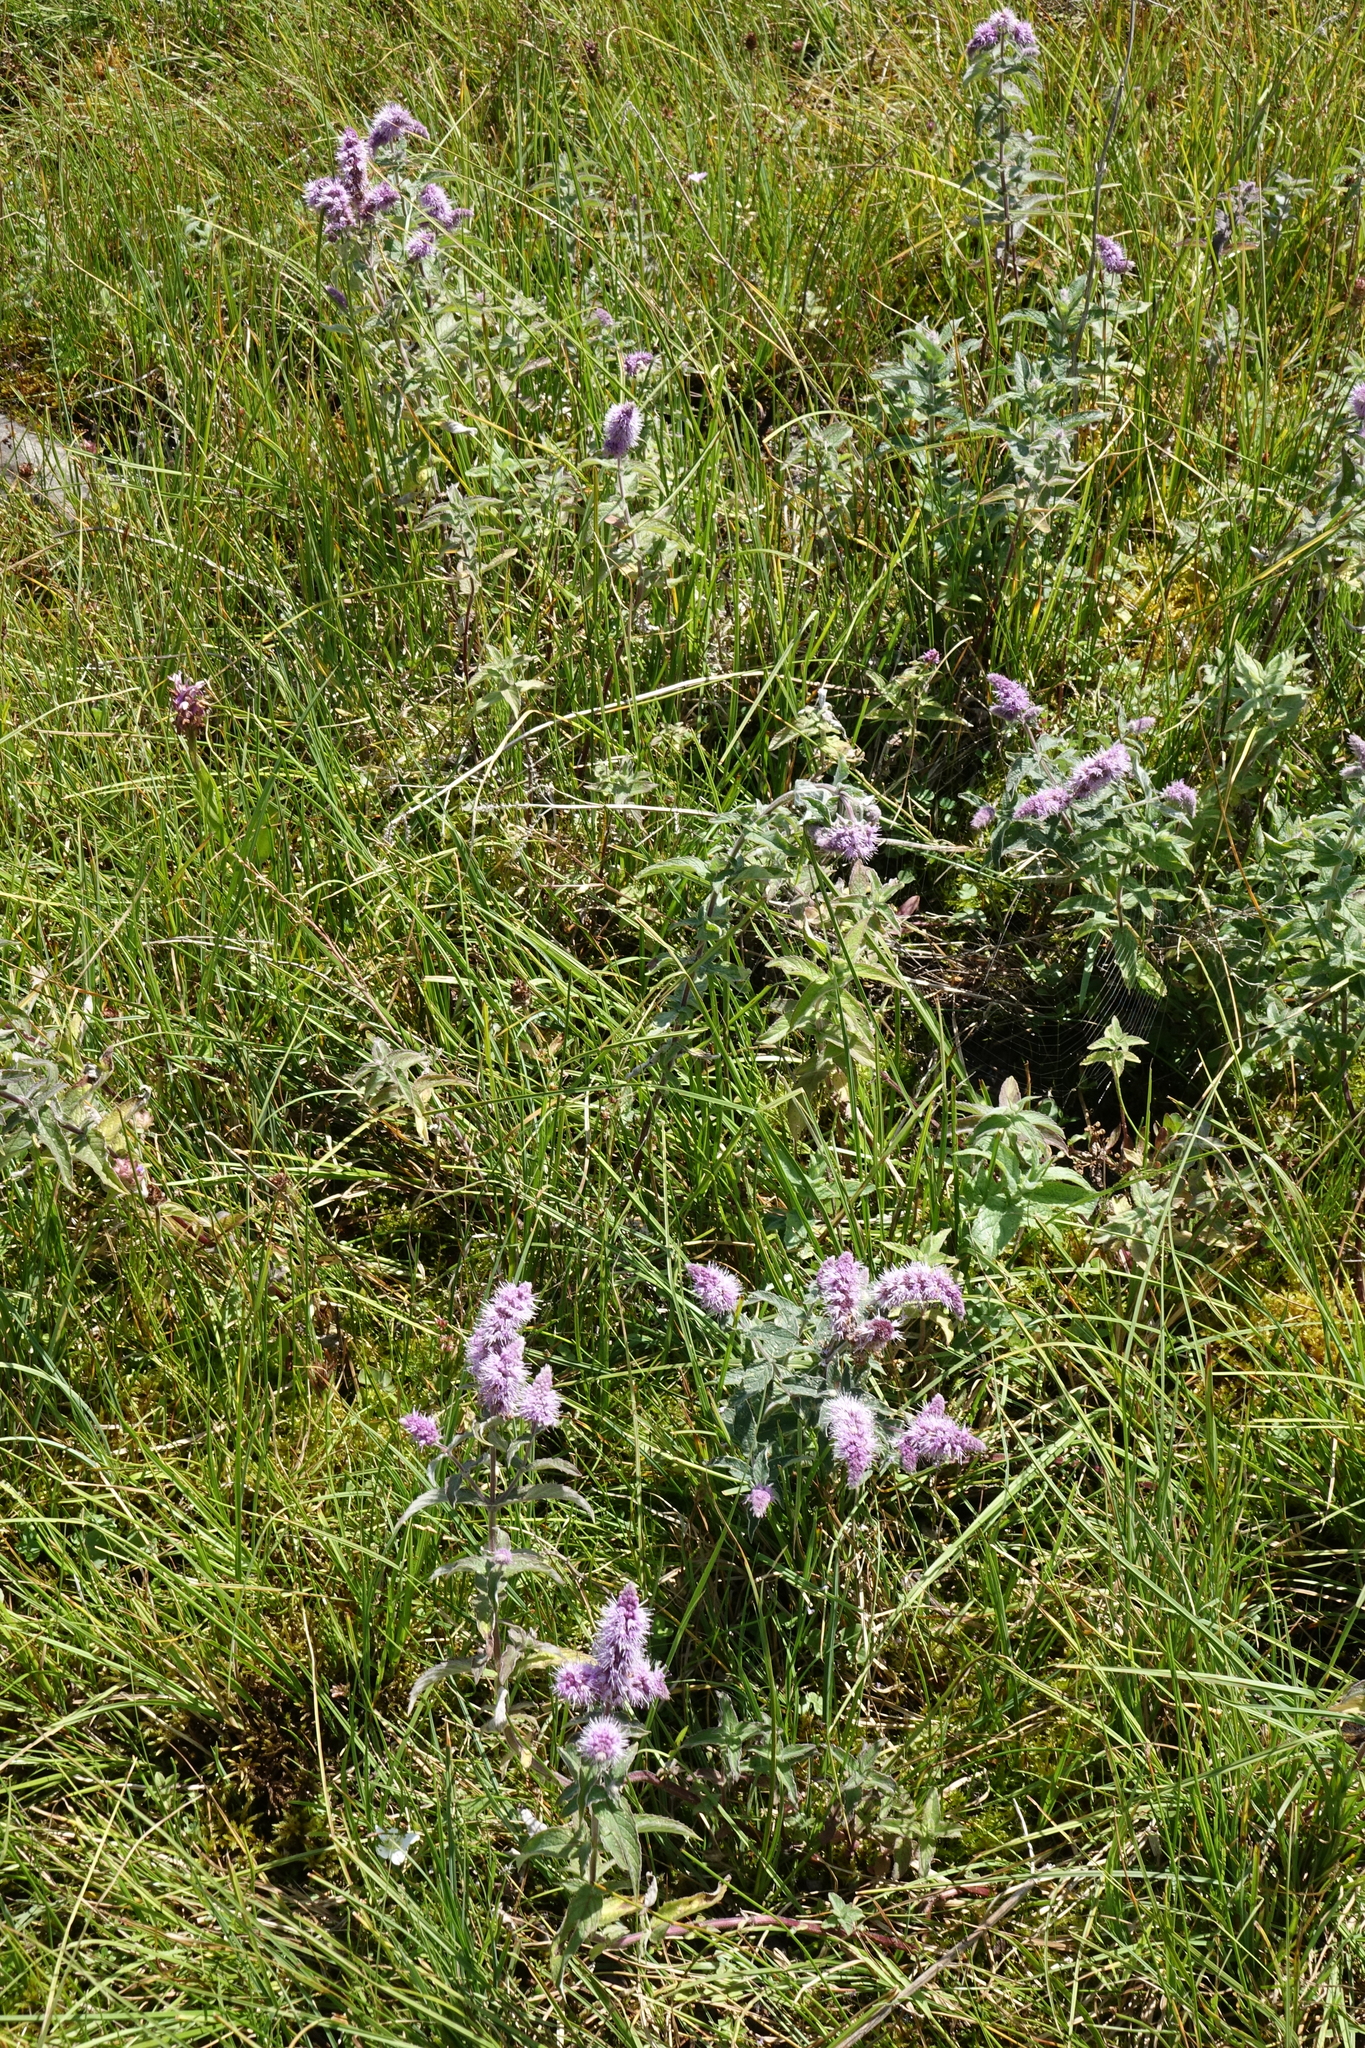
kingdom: Plantae
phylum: Tracheophyta
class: Magnoliopsida
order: Lamiales
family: Lamiaceae
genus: Mentha
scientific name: Mentha longifolia
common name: Horse mint
